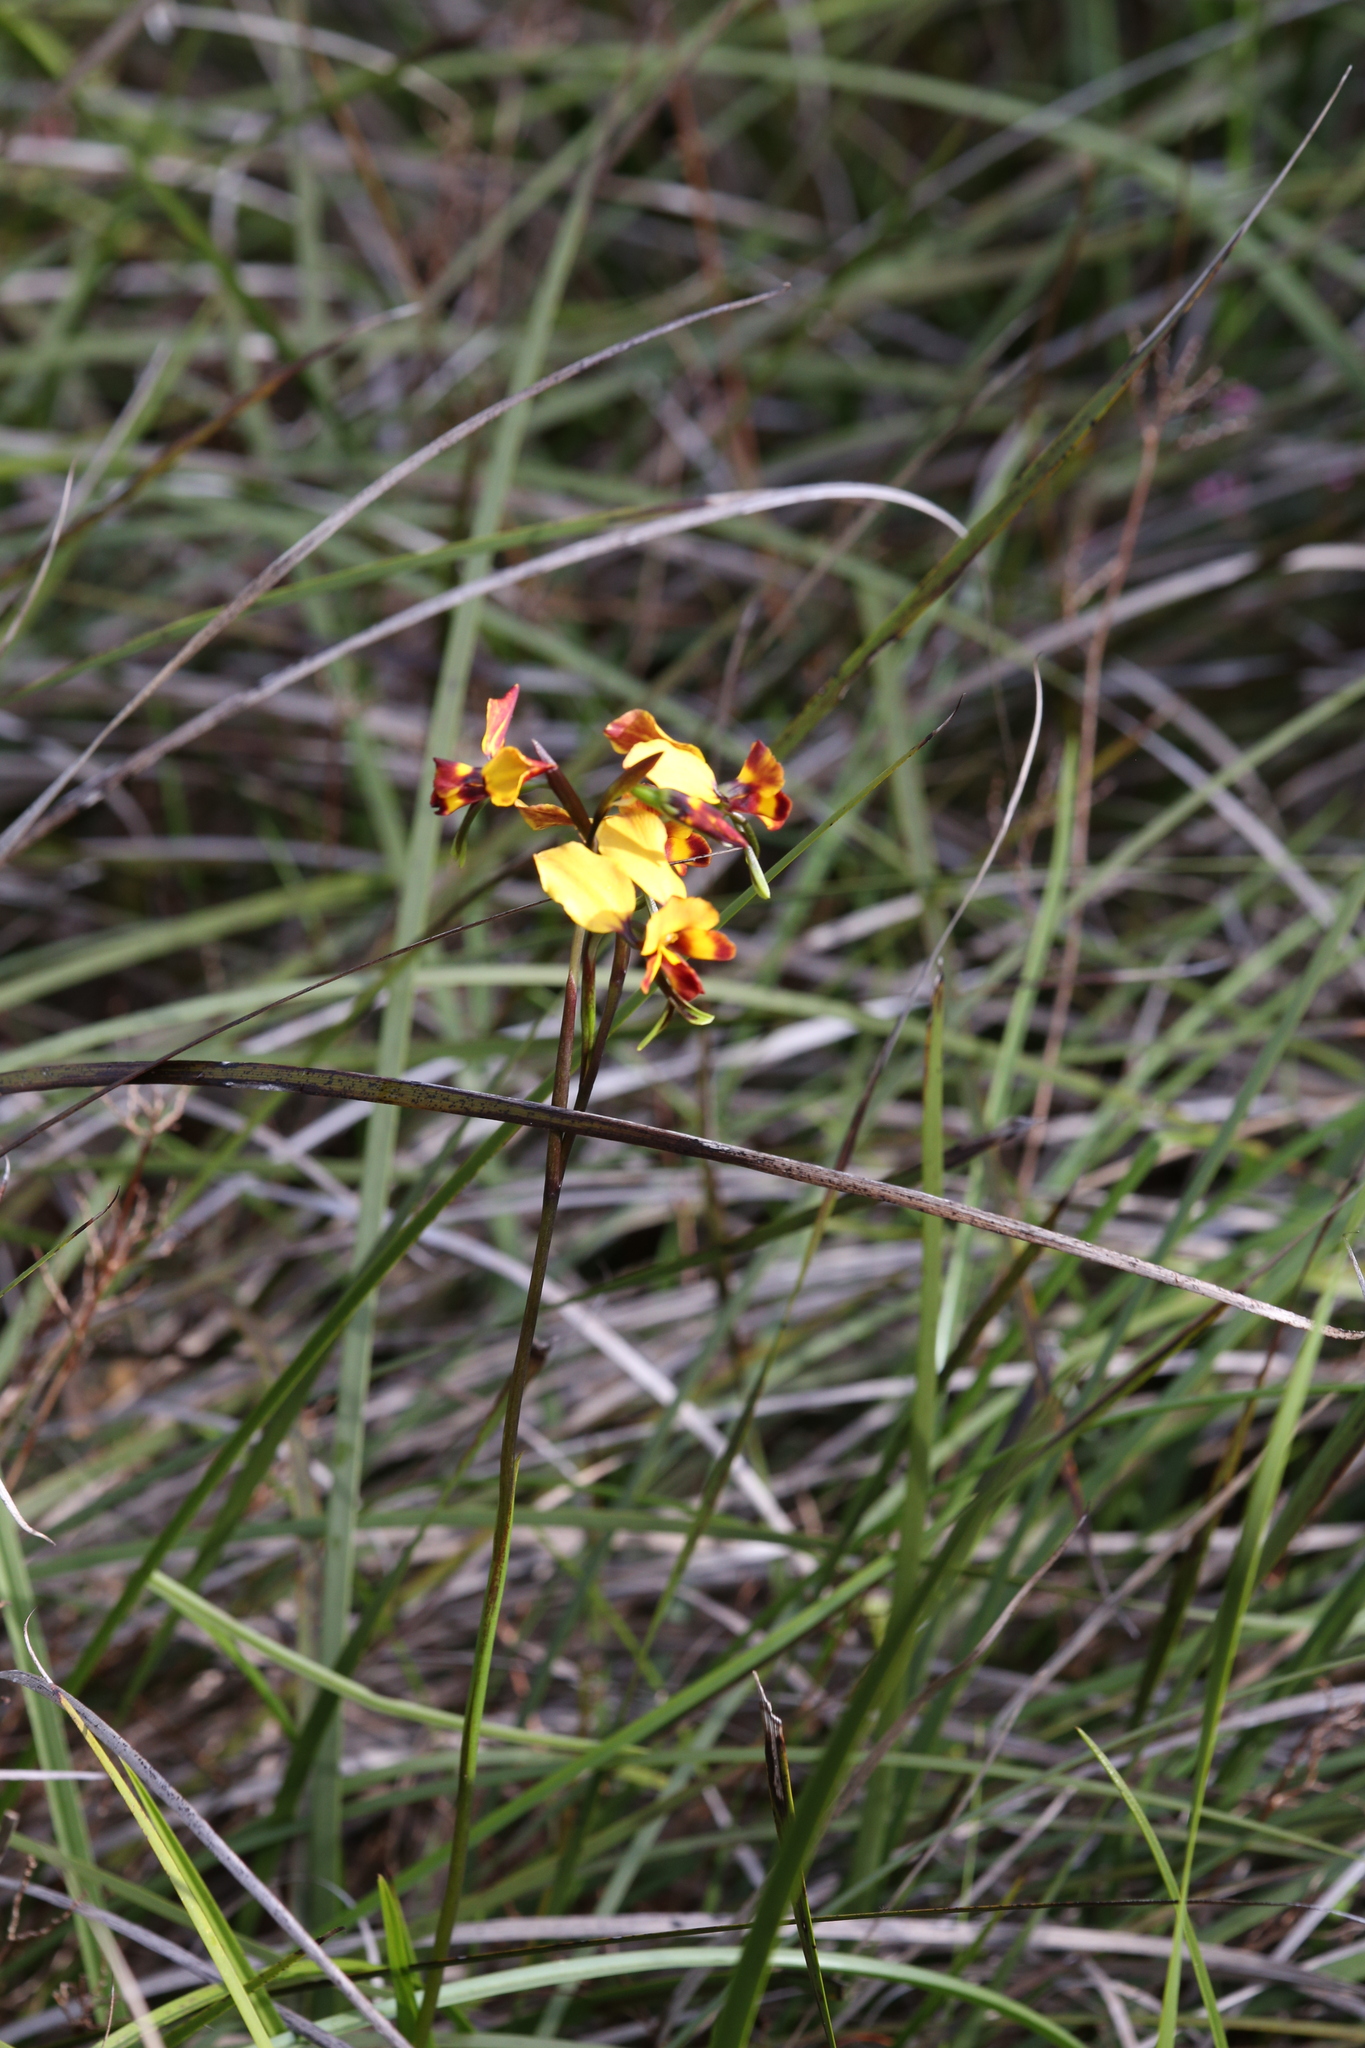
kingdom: Plantae
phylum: Tracheophyta
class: Liliopsida
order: Asparagales
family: Orchidaceae
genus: Diuris
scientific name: Diuris corymbosa
